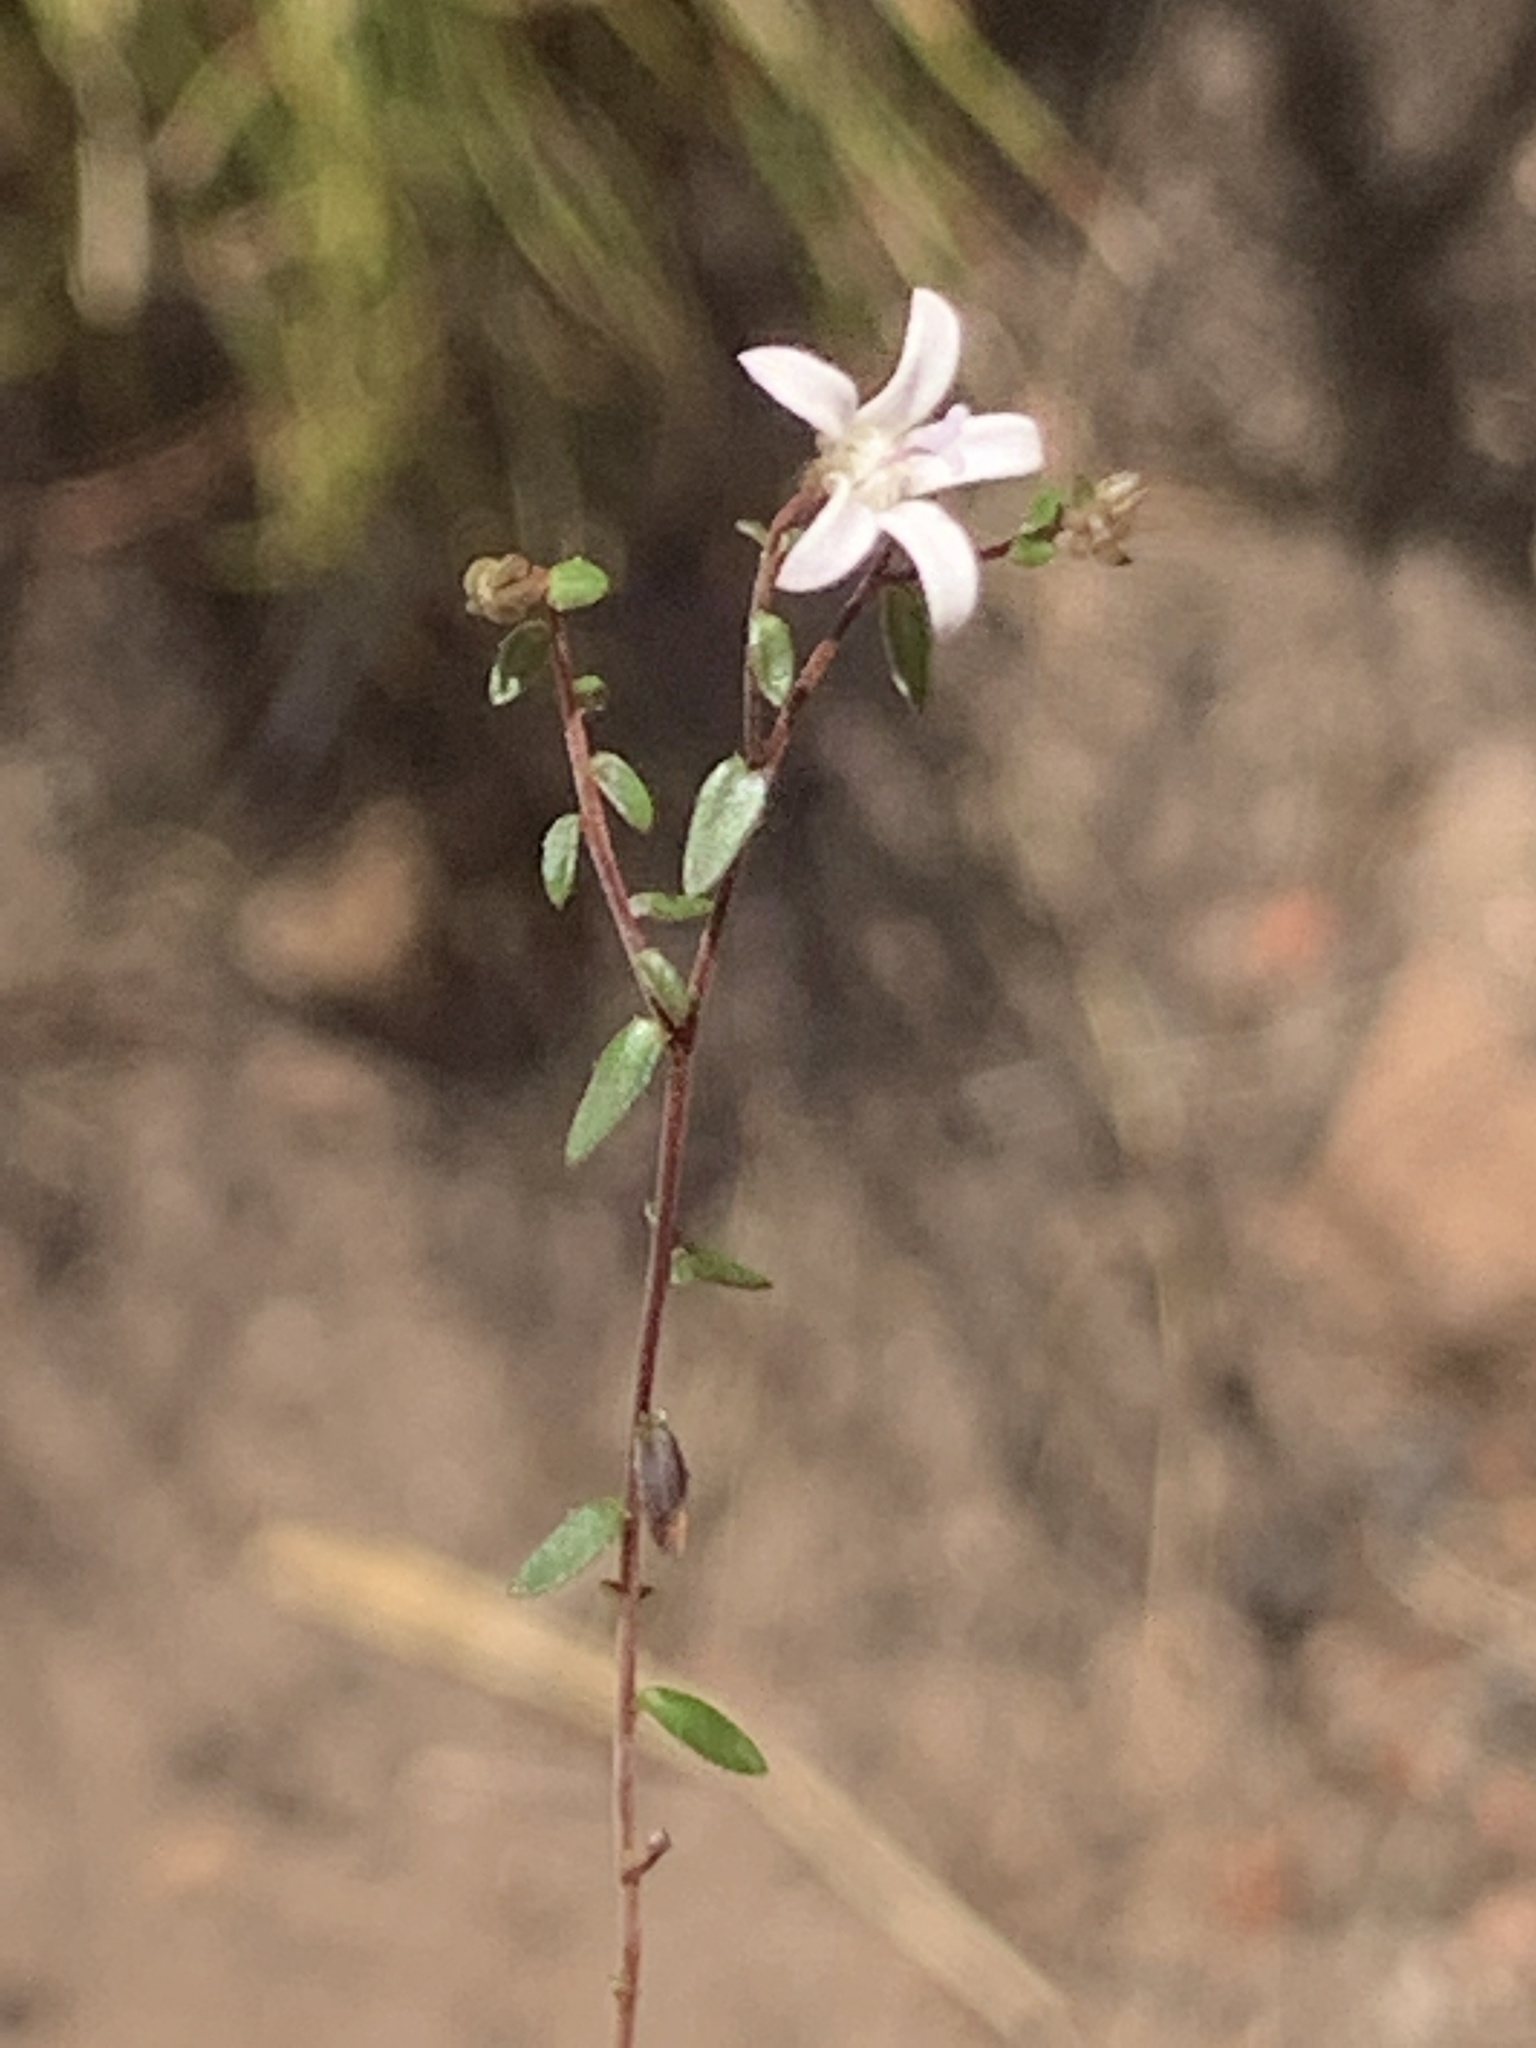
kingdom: Plantae
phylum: Tracheophyta
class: Magnoliopsida
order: Asterales
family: Campanulaceae
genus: Wahlenbergia
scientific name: Wahlenbergia parvifolia
